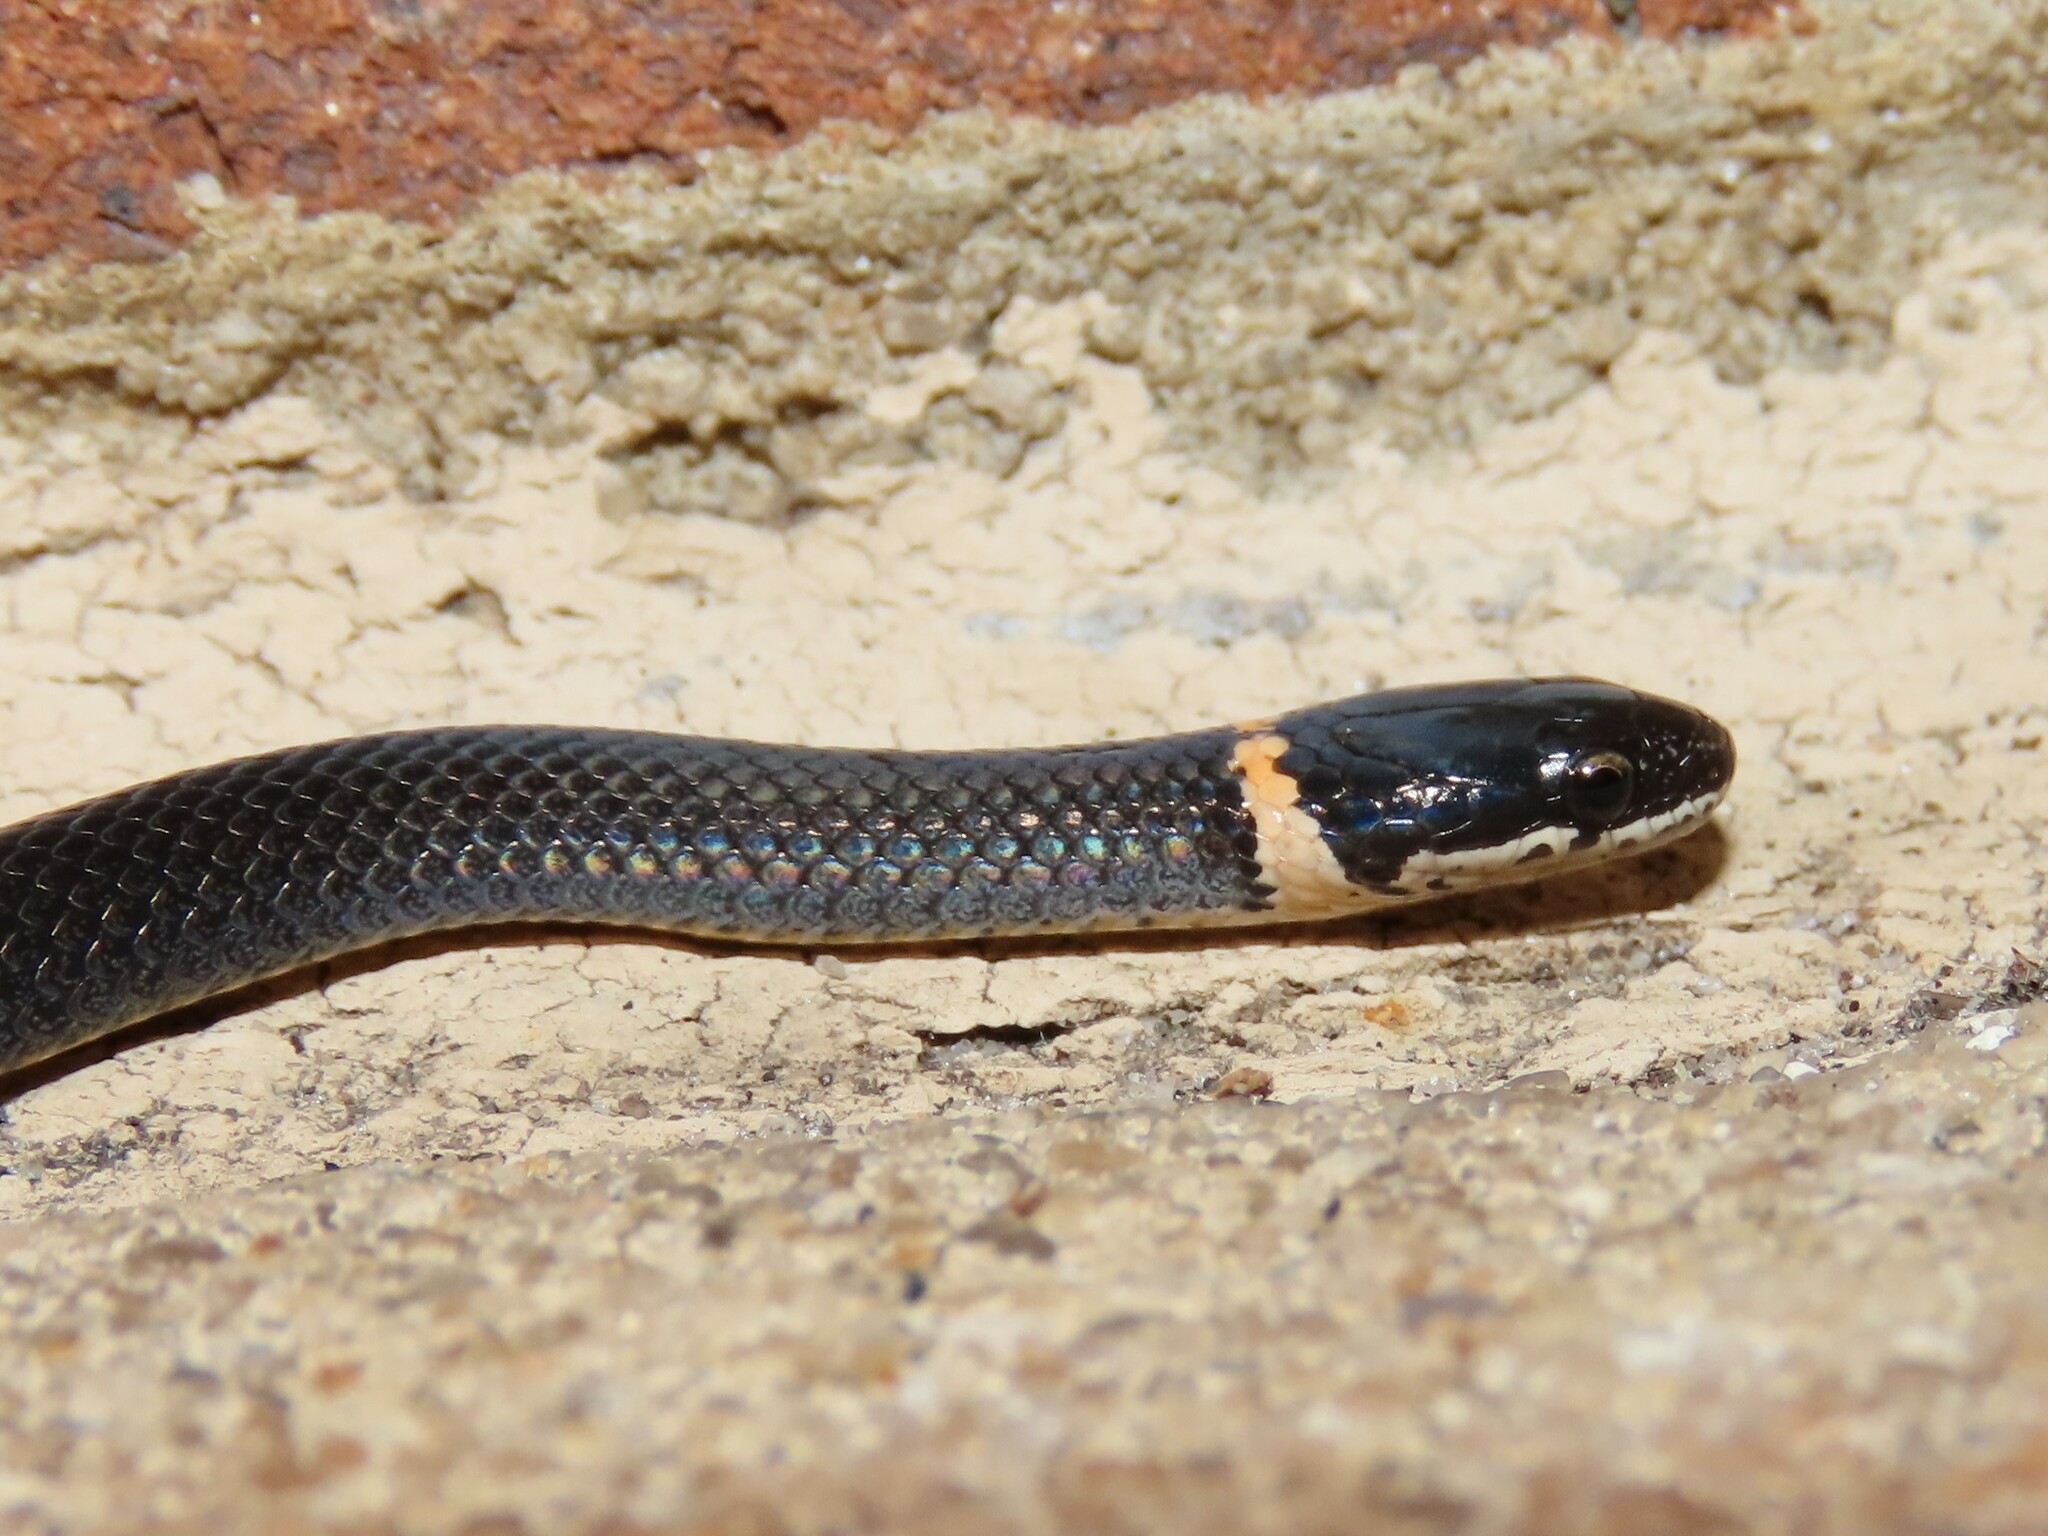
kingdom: Animalia
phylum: Chordata
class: Squamata
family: Colubridae
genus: Diadophis
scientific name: Diadophis punctatus
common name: Ringneck snake
